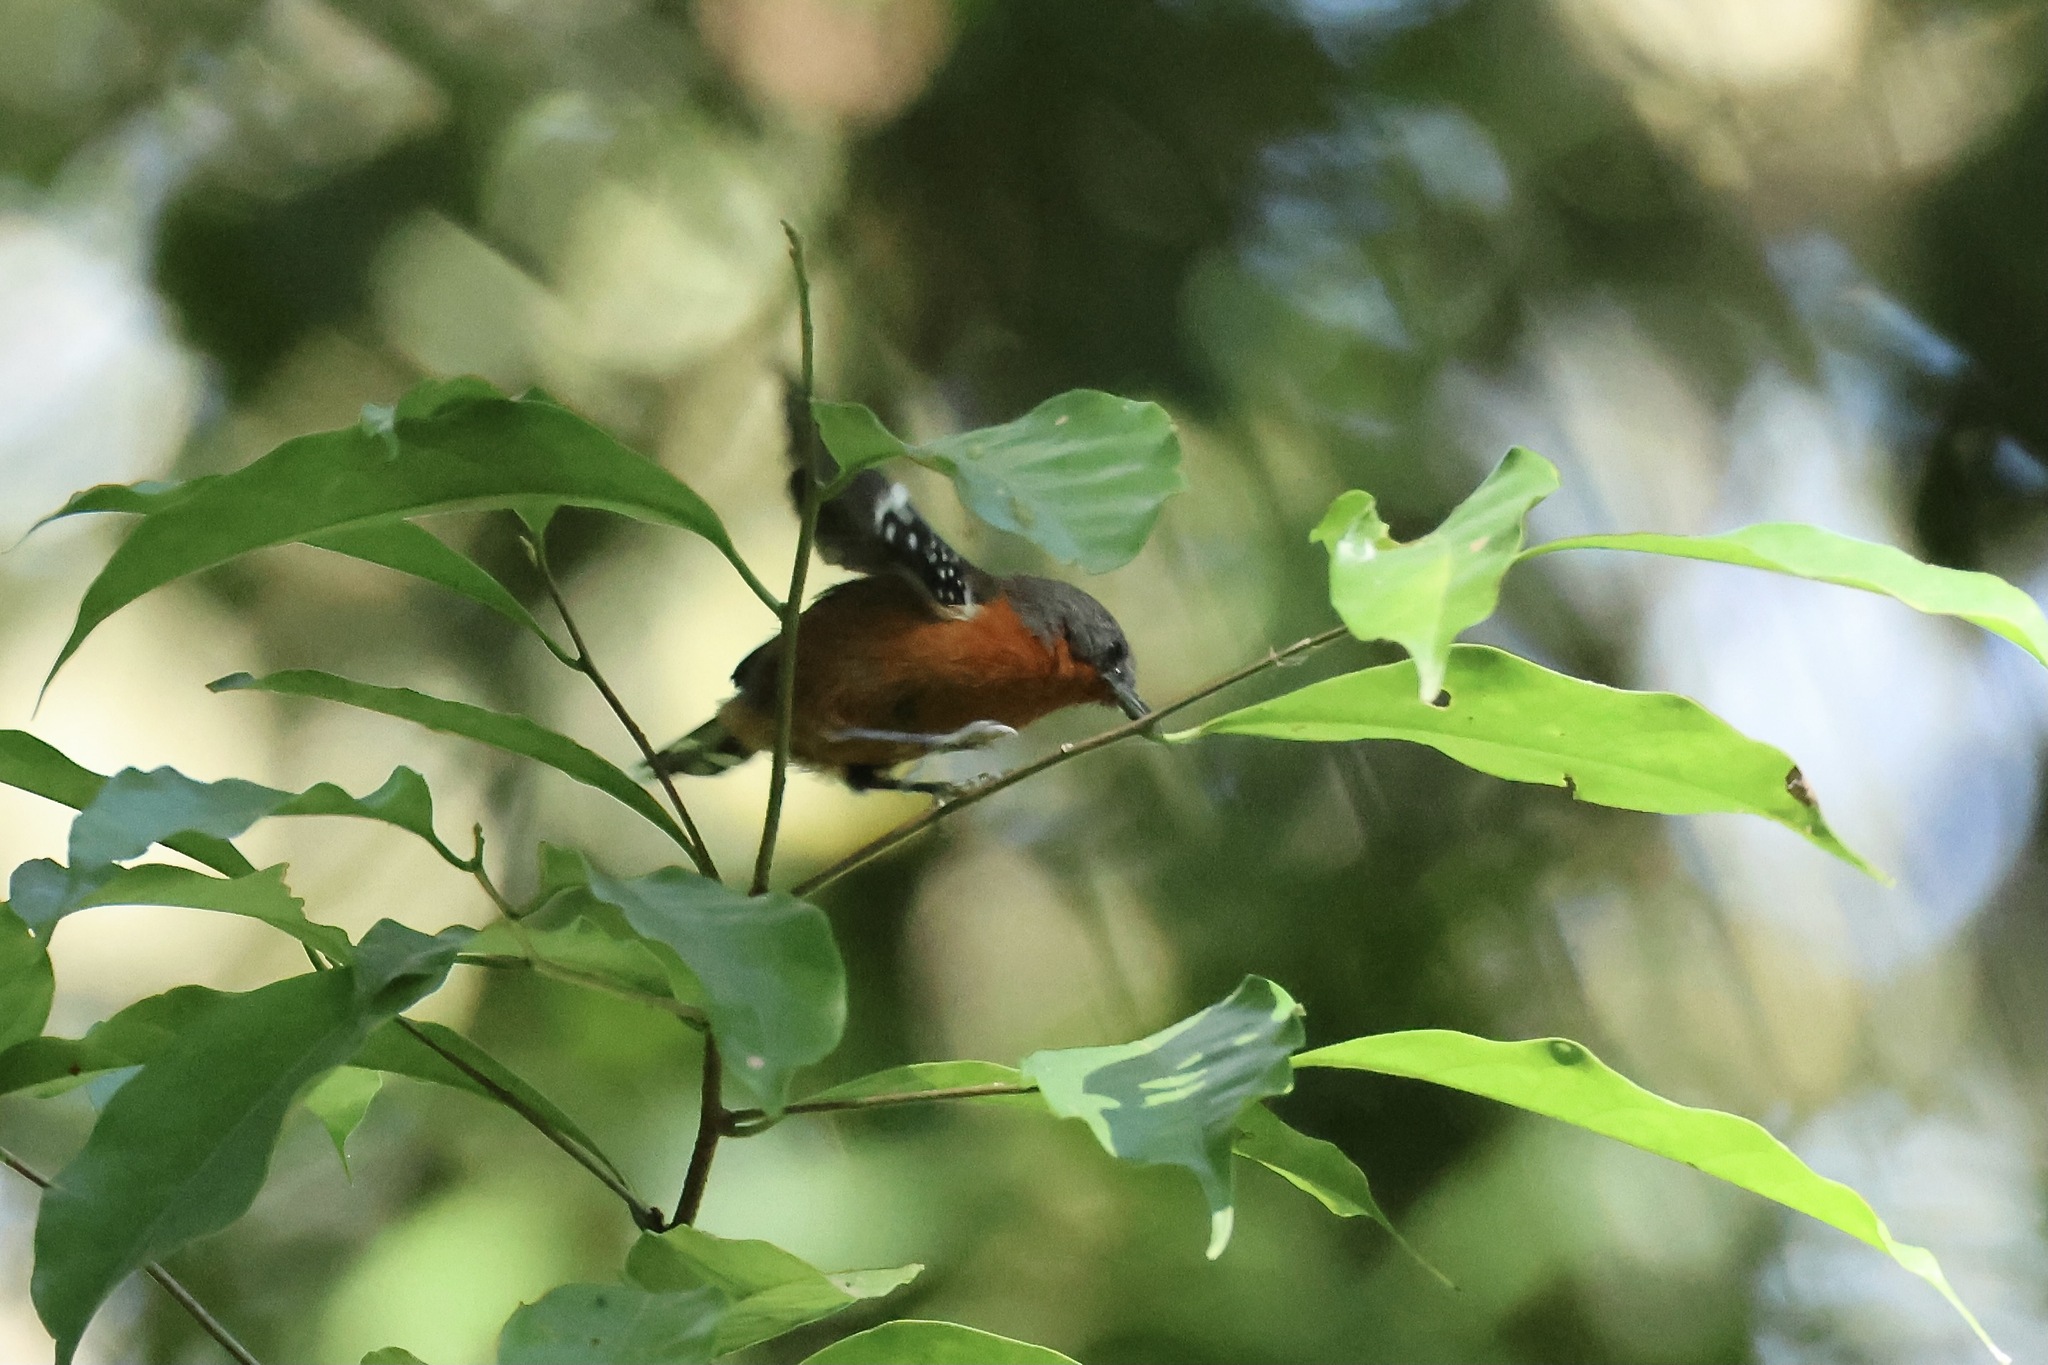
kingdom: Animalia
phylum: Chordata
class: Aves
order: Passeriformes
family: Thamnophilidae
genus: Microrhopias
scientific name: Microrhopias quixensis
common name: Dot-winged antwren
